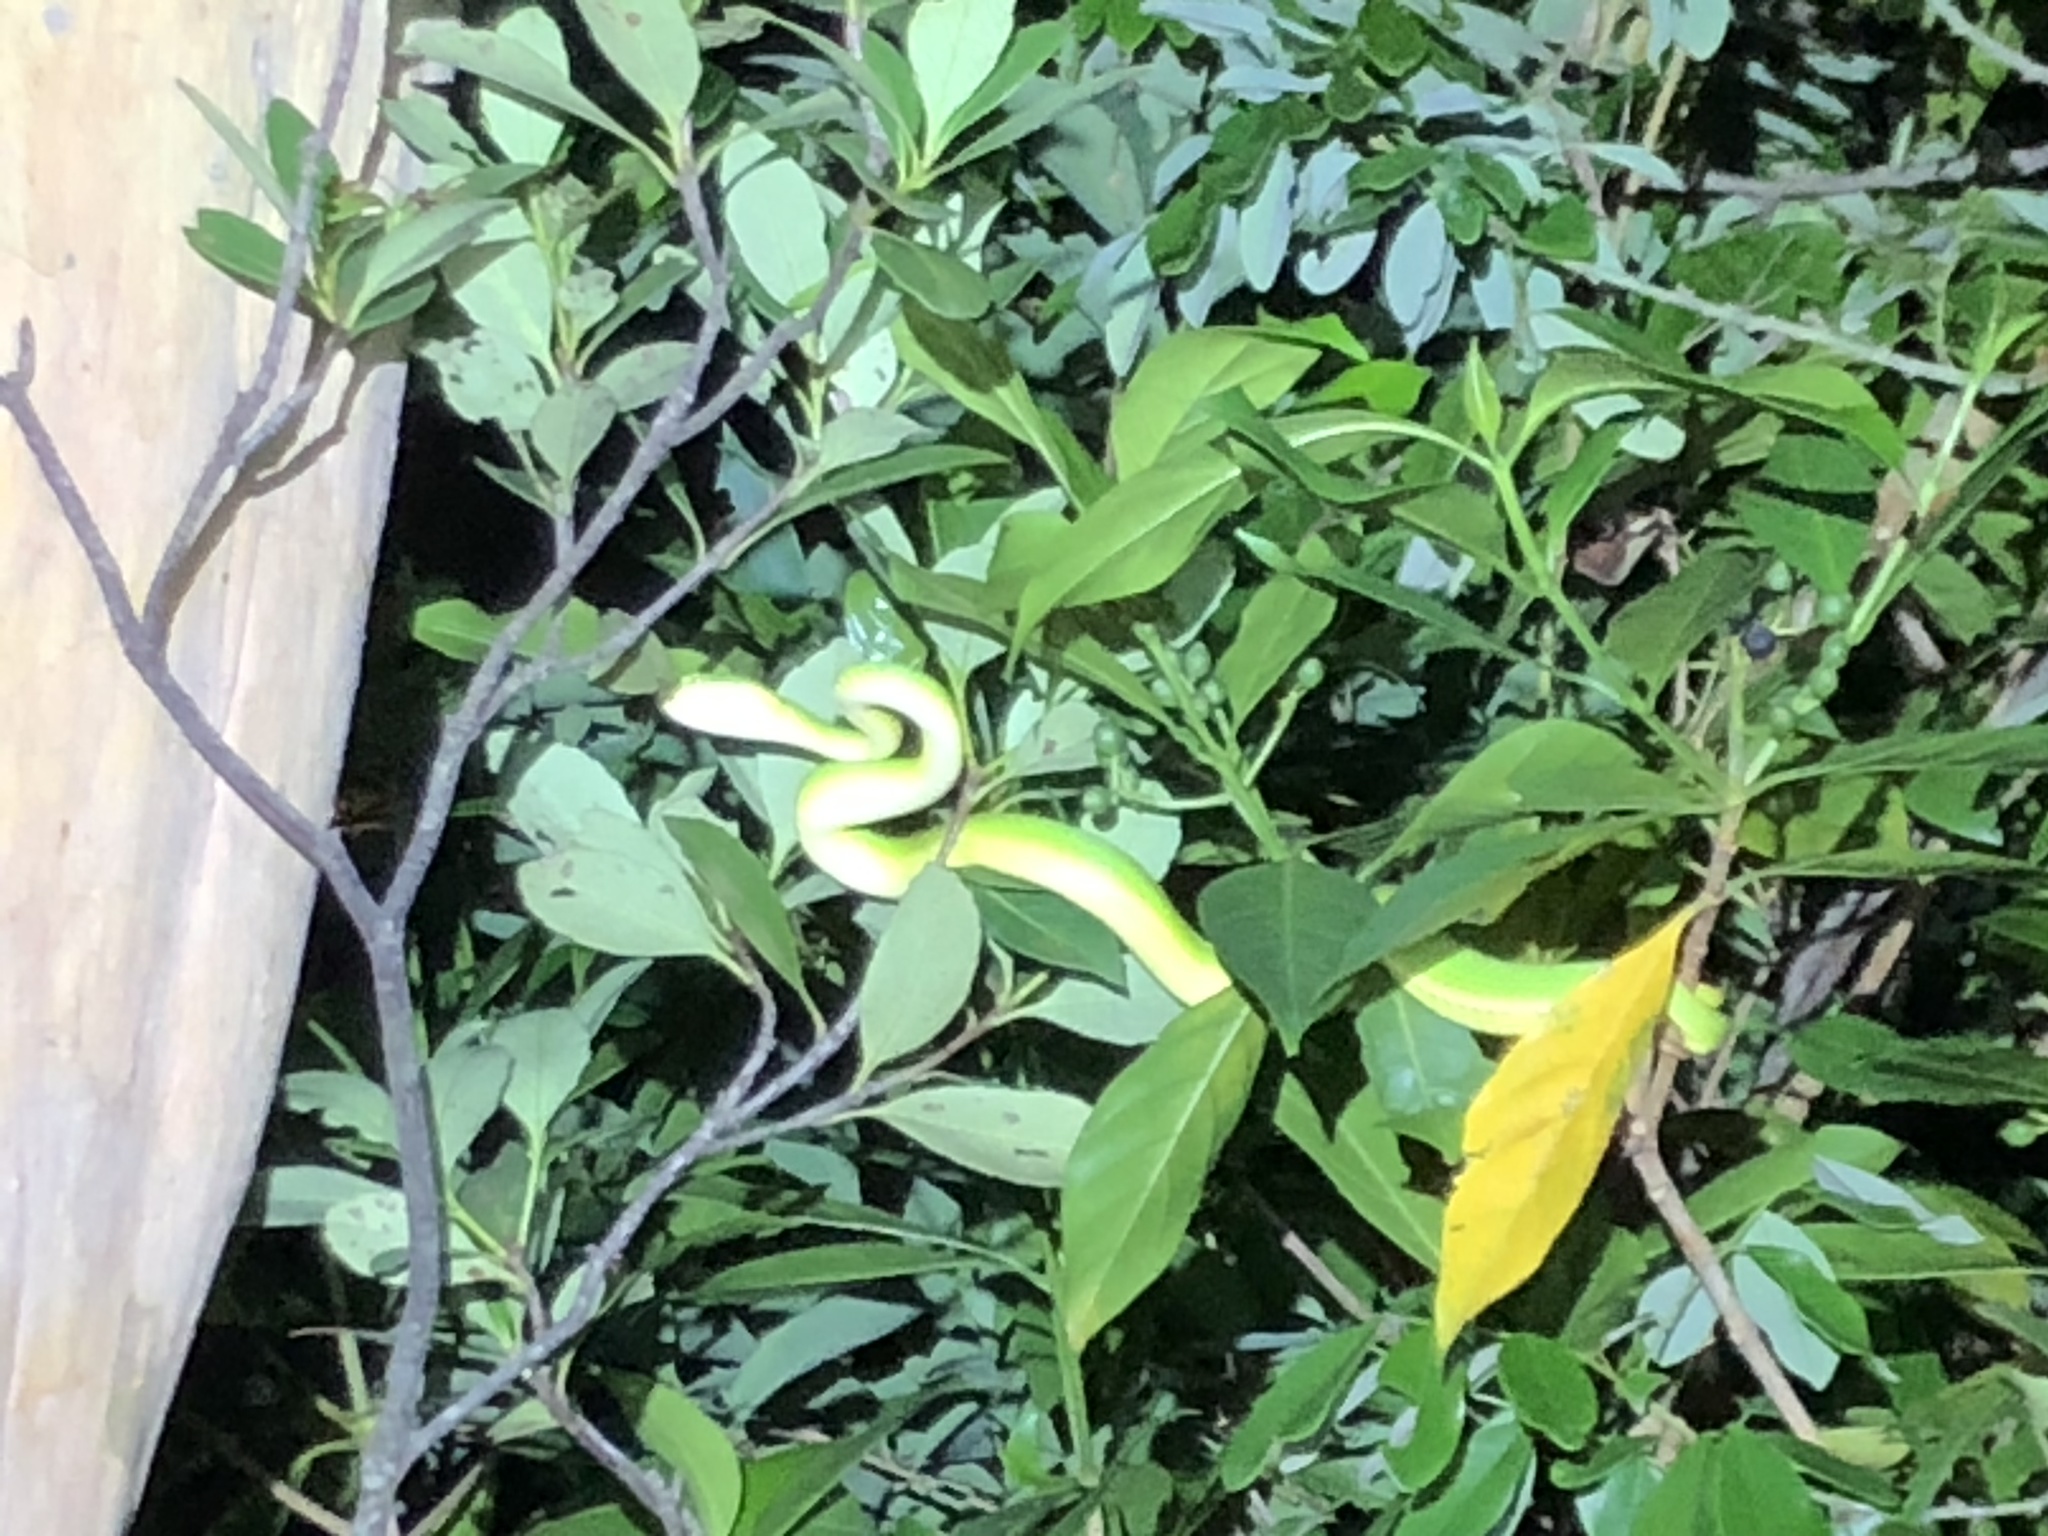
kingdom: Animalia
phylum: Chordata
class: Squamata
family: Viperidae
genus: Trimeresurus
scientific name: Trimeresurus albolabris
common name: White-lipped pitviper
